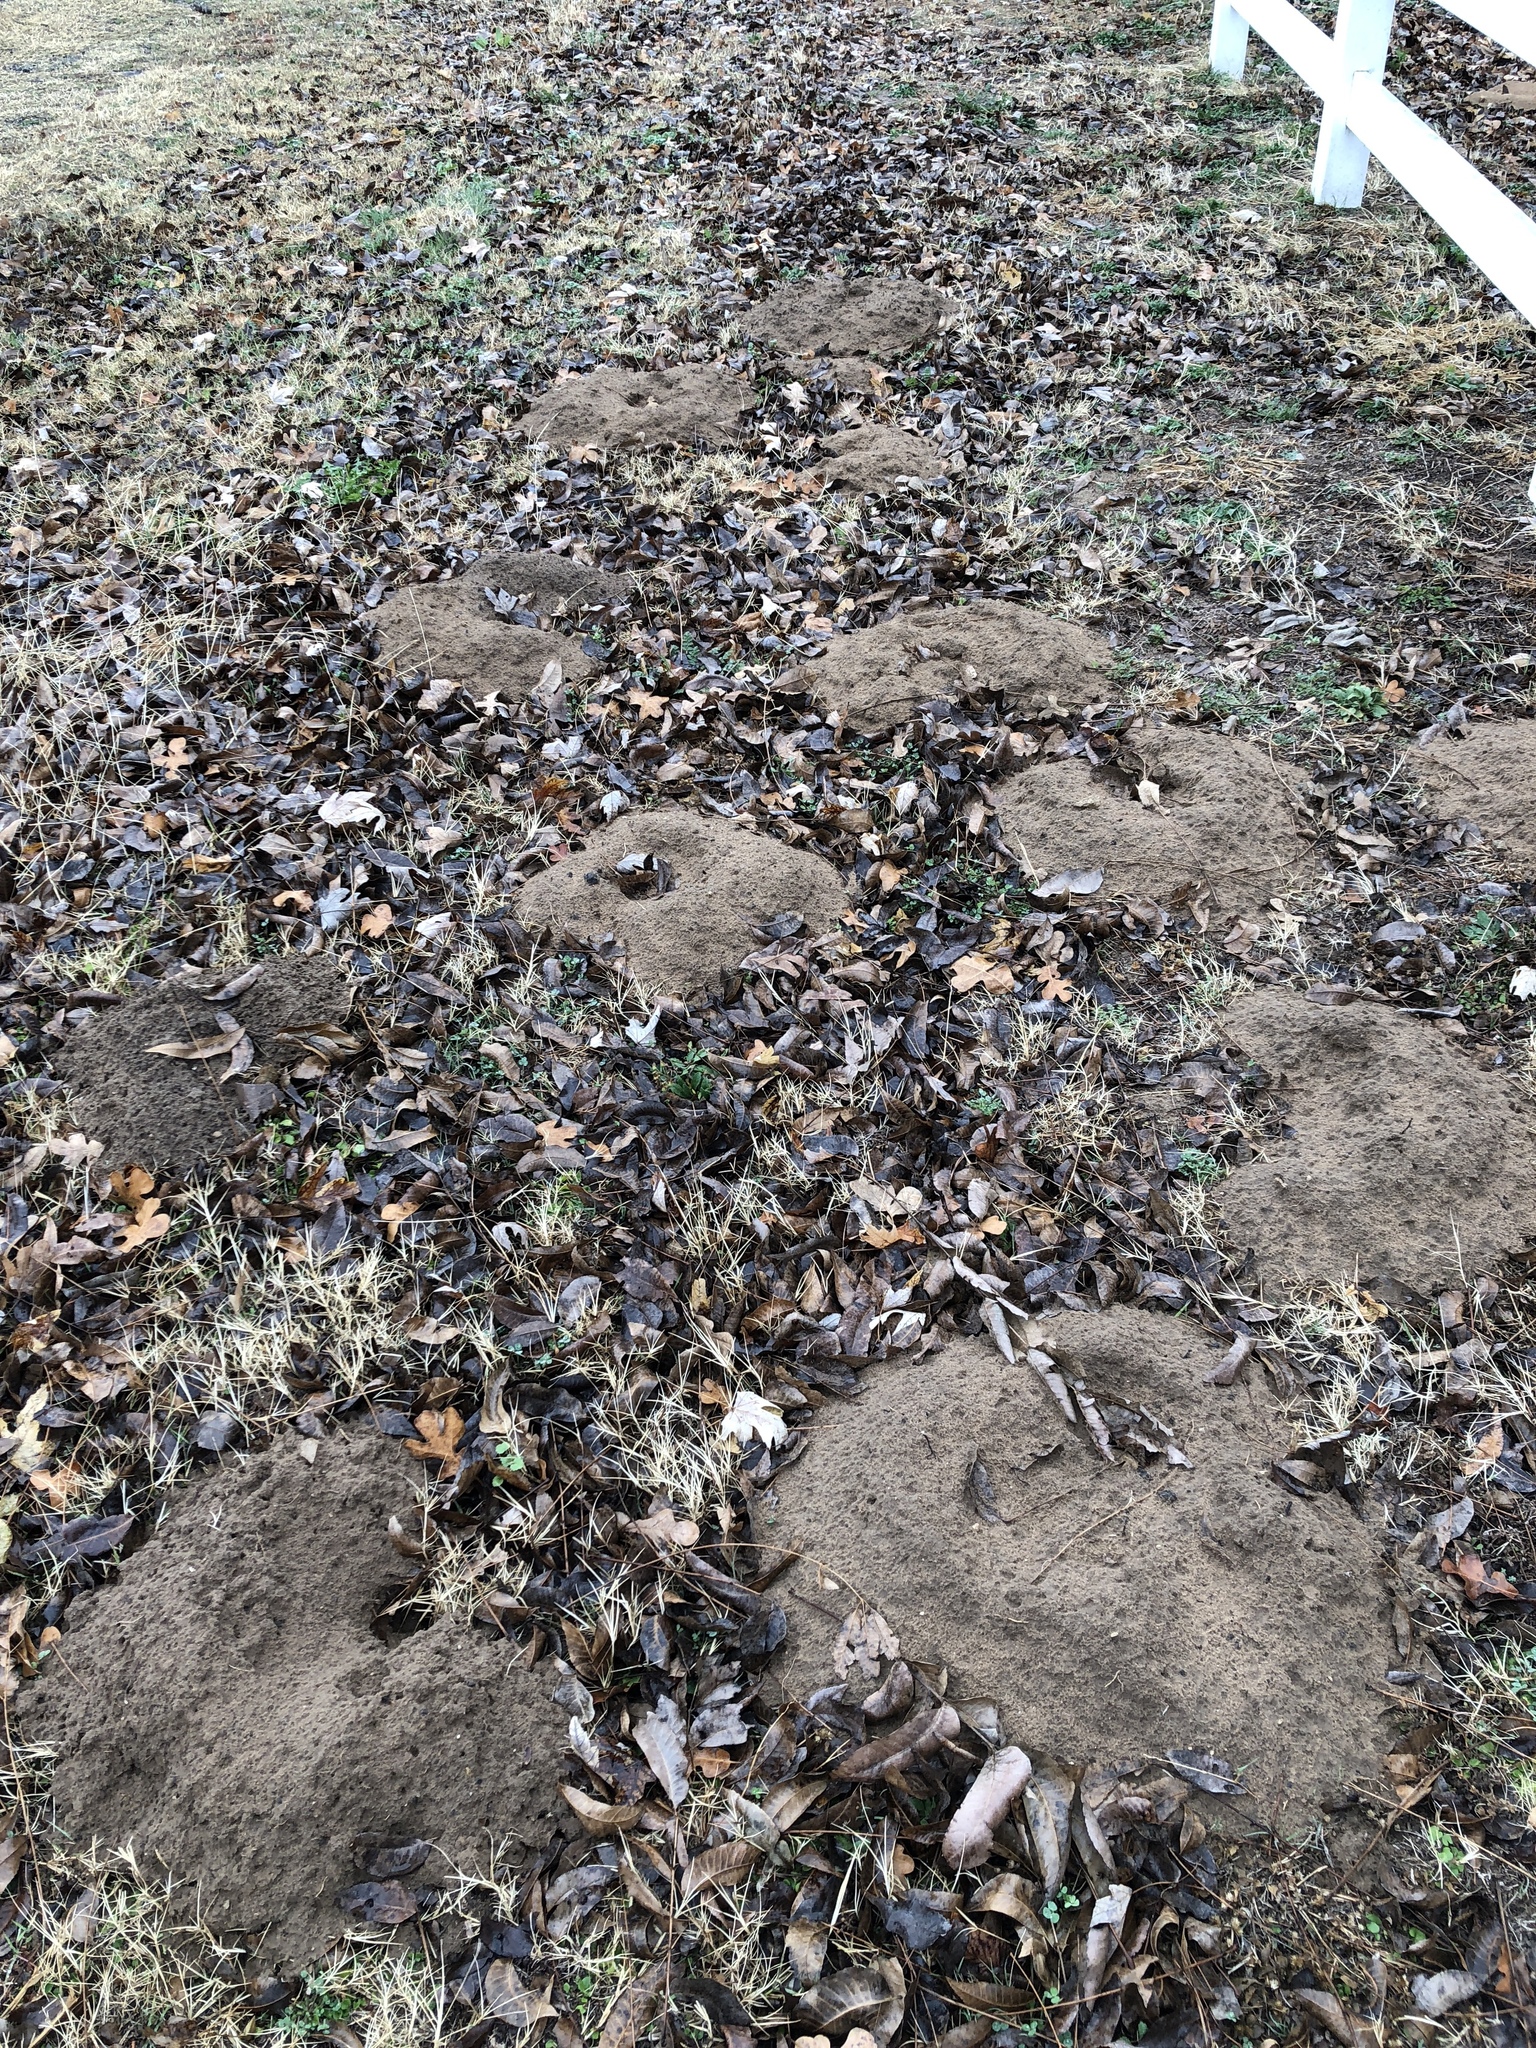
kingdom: Animalia
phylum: Chordata
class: Mammalia
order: Rodentia
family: Geomyidae
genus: Geomys
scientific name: Geomys bursarius
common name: Plains pocket gopher
